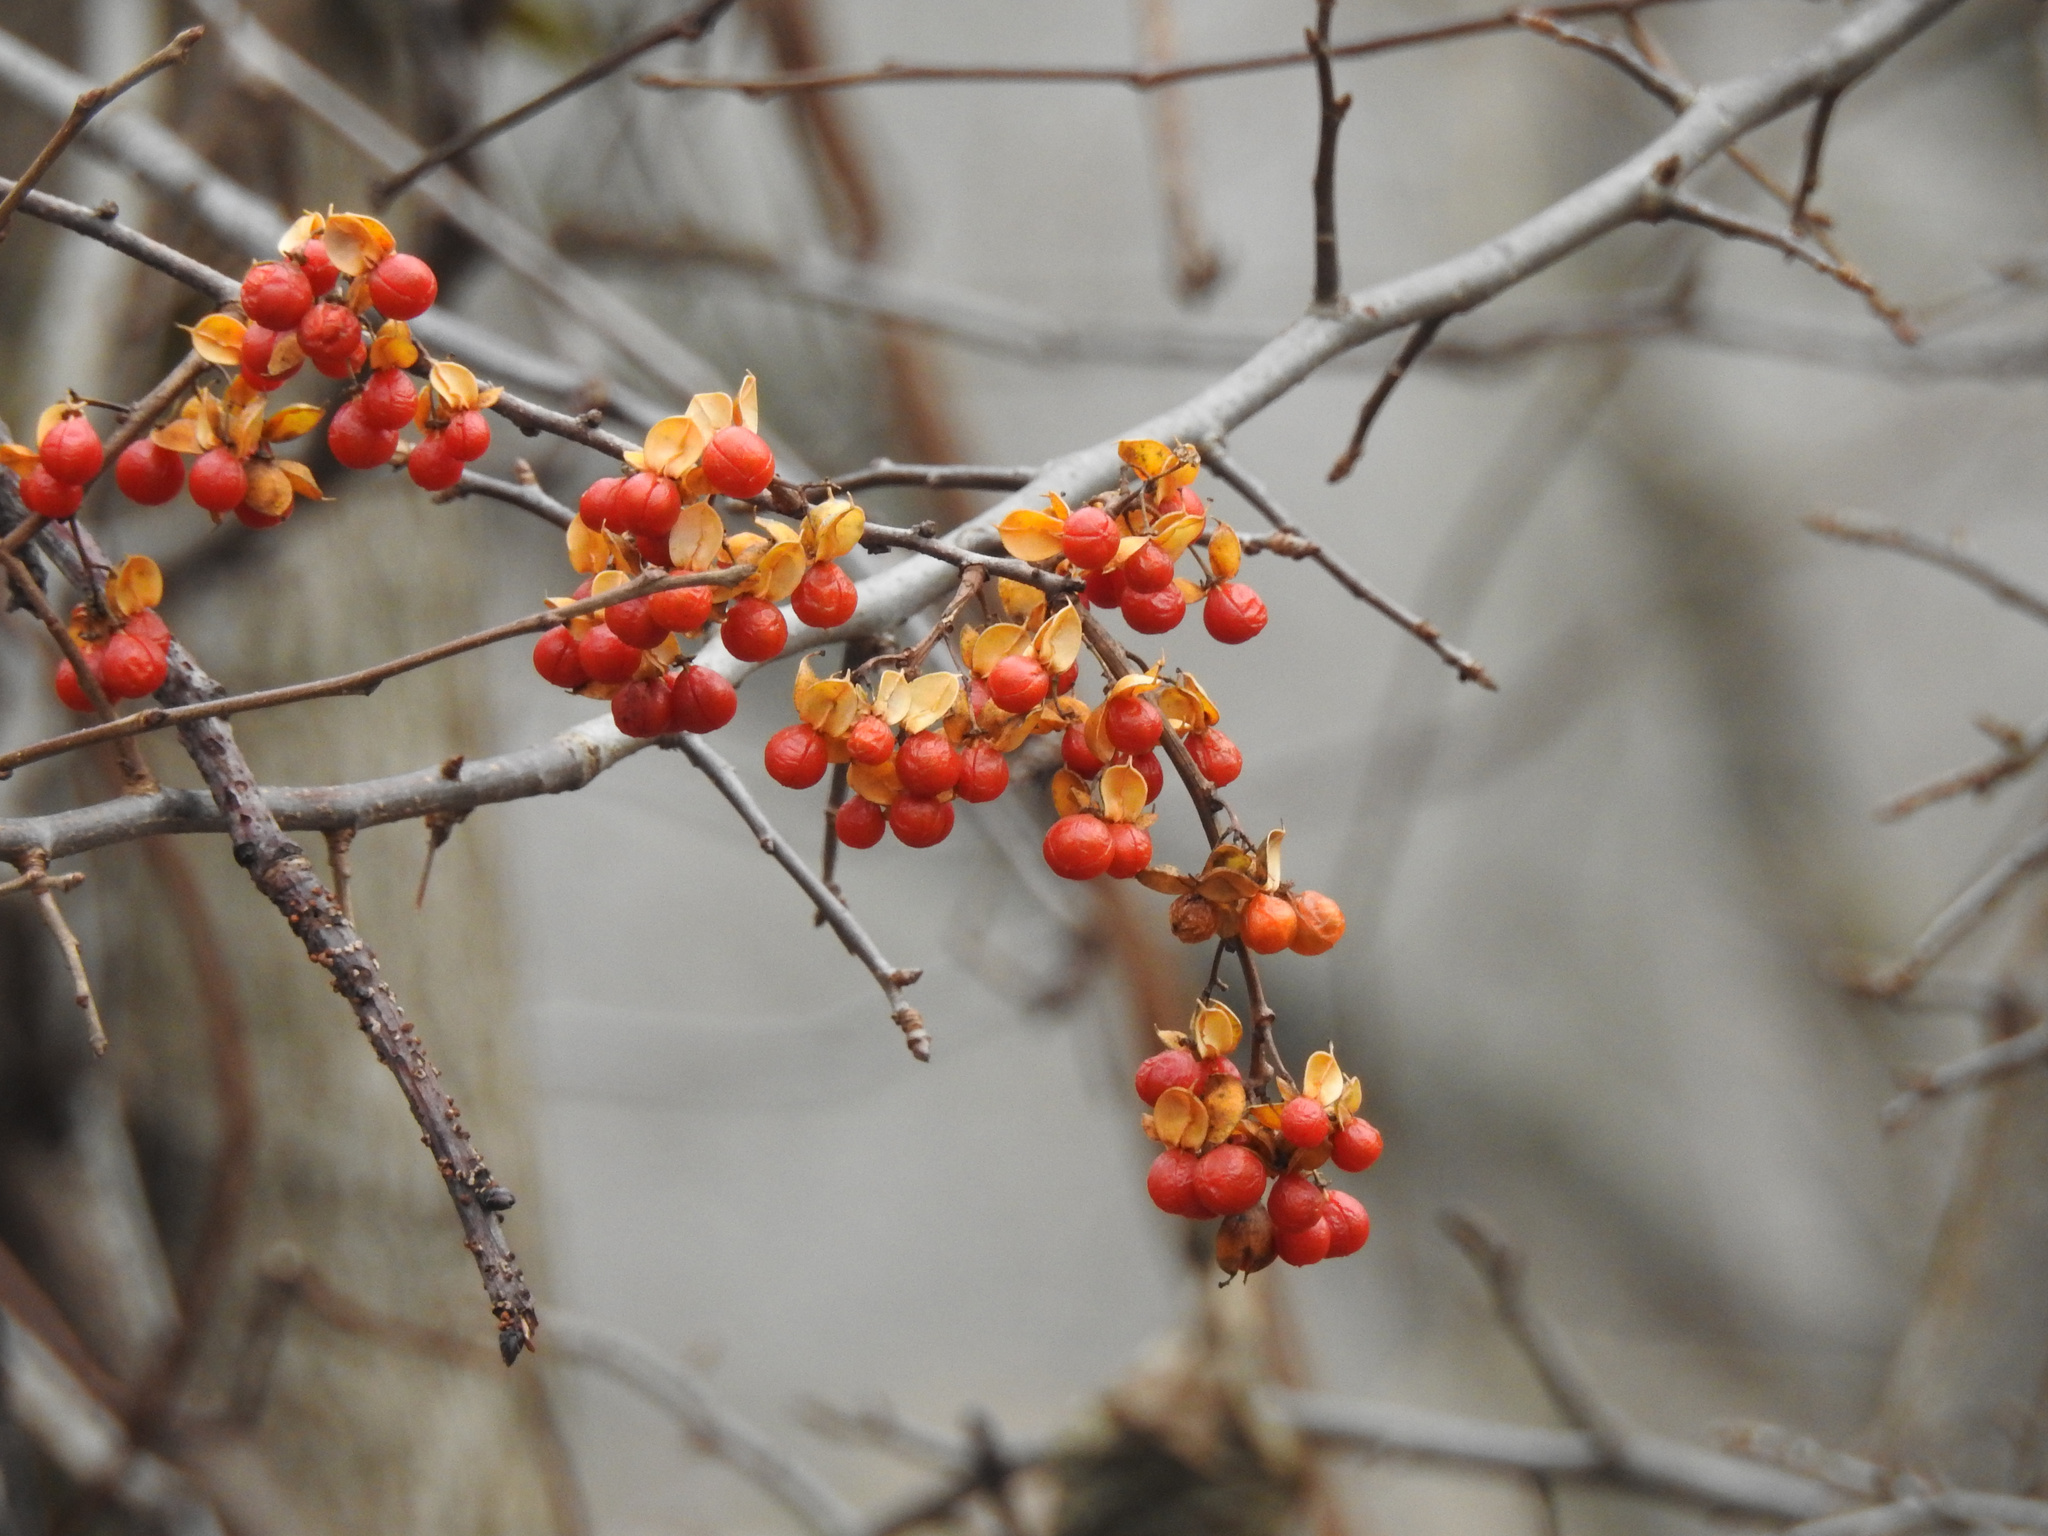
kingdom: Plantae
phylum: Tracheophyta
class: Magnoliopsida
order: Celastrales
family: Celastraceae
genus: Celastrus
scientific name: Celastrus orbiculatus
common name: Oriental bittersweet
